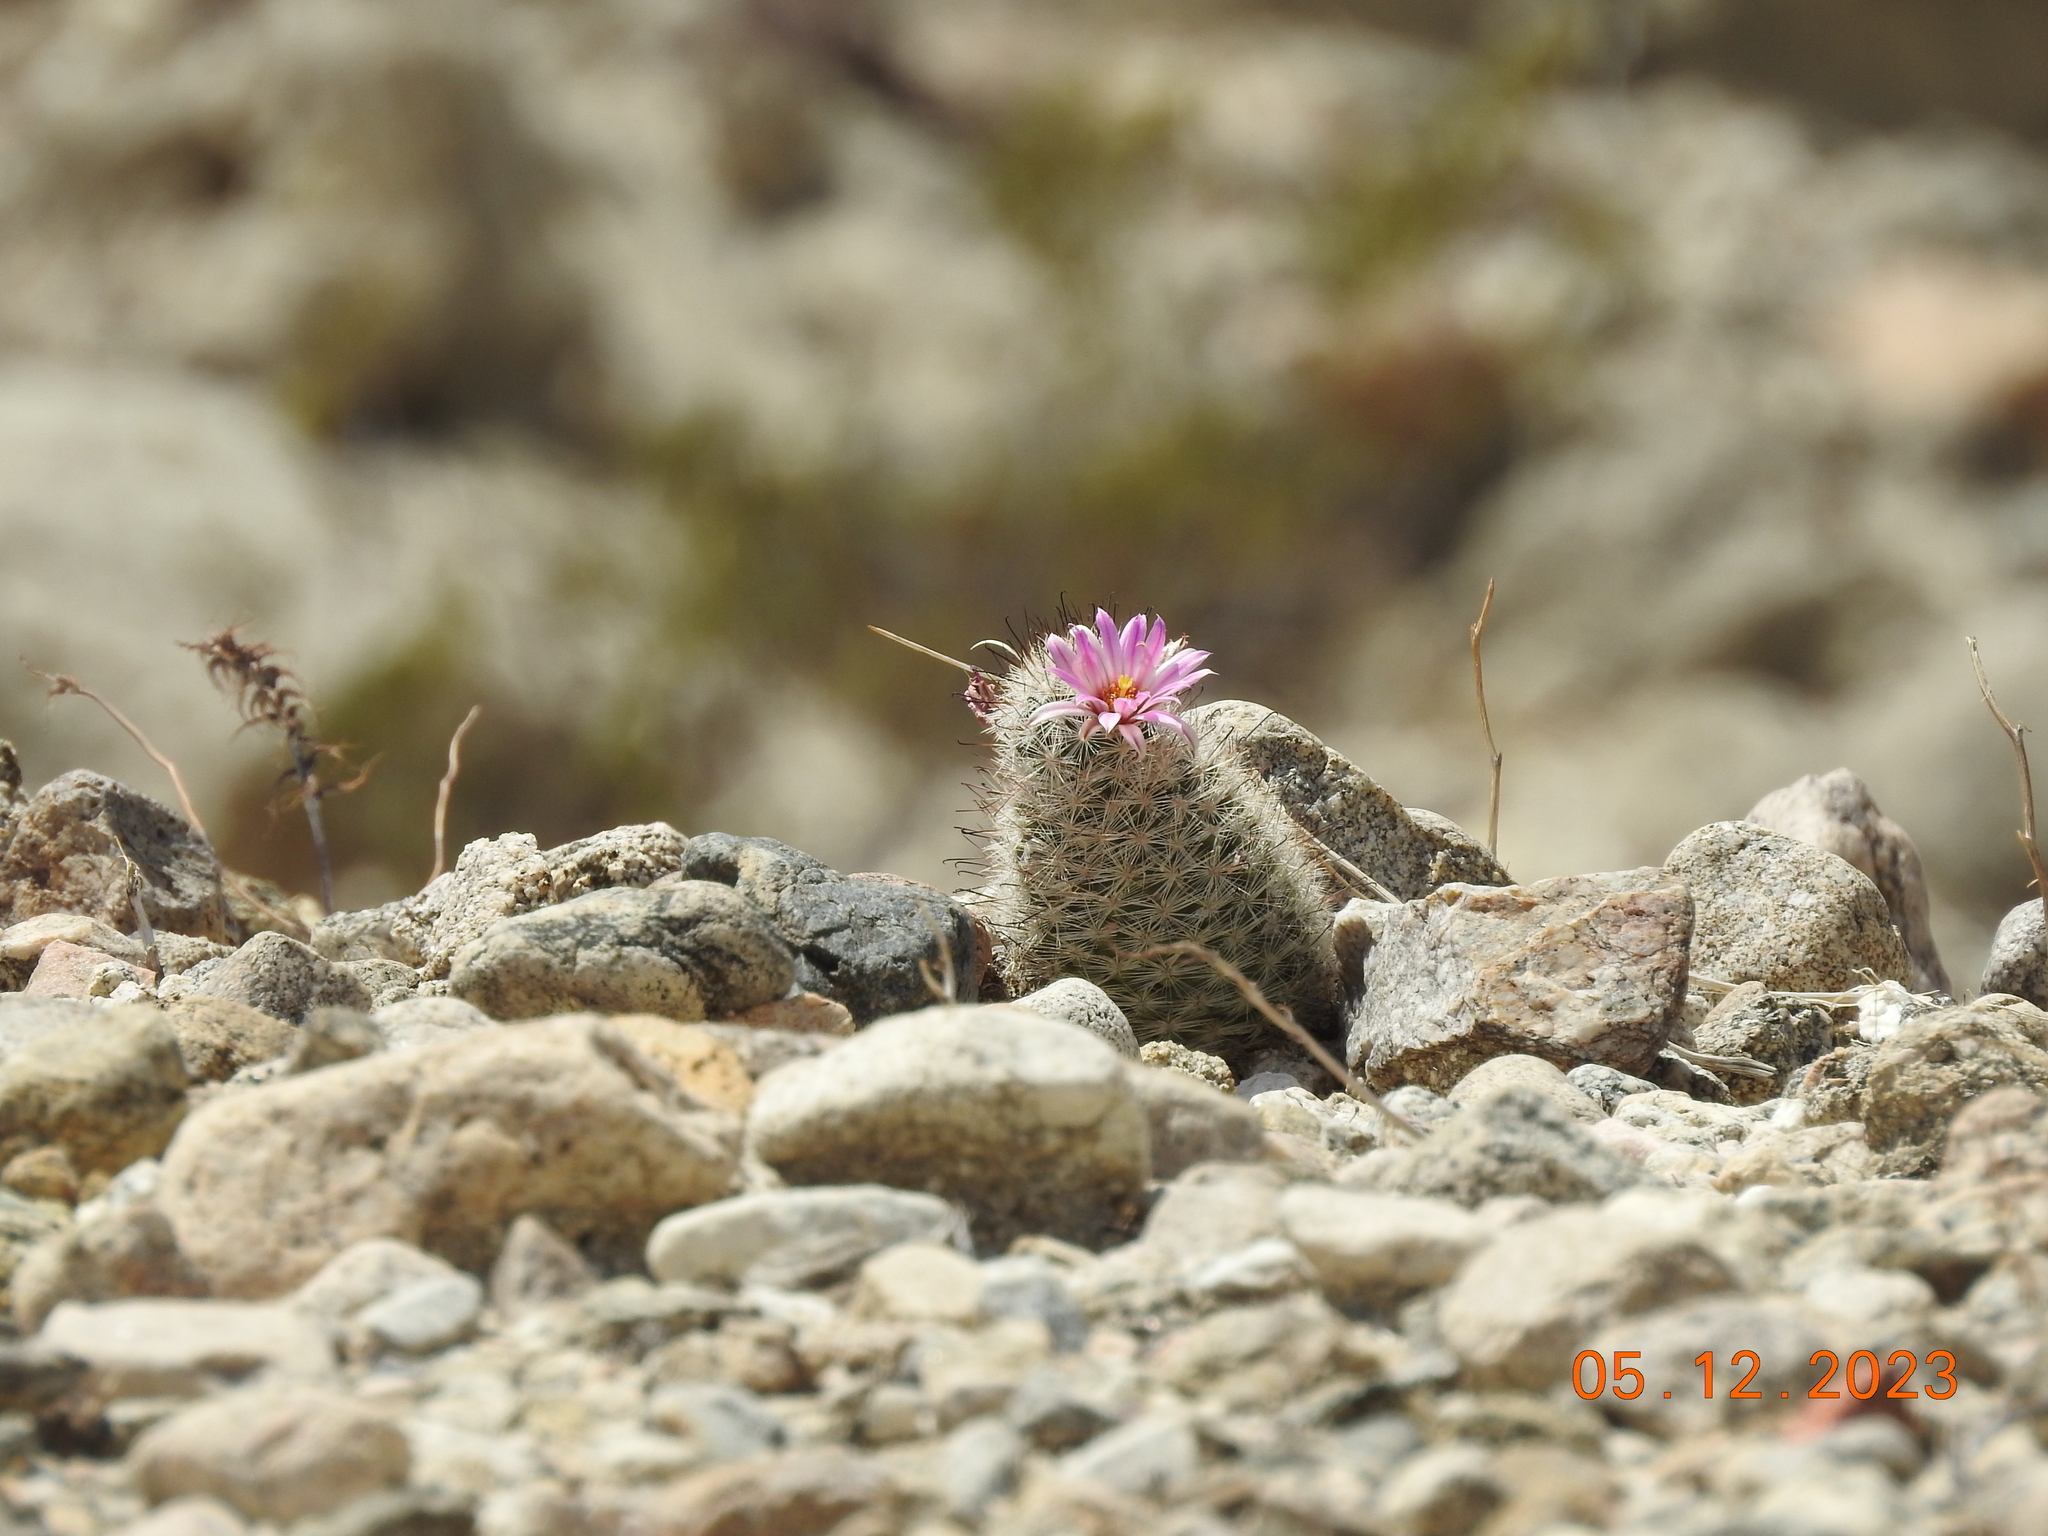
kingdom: Plantae
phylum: Tracheophyta
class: Magnoliopsida
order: Caryophyllales
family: Cactaceae
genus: Cochemiea
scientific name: Cochemiea tetrancistra
